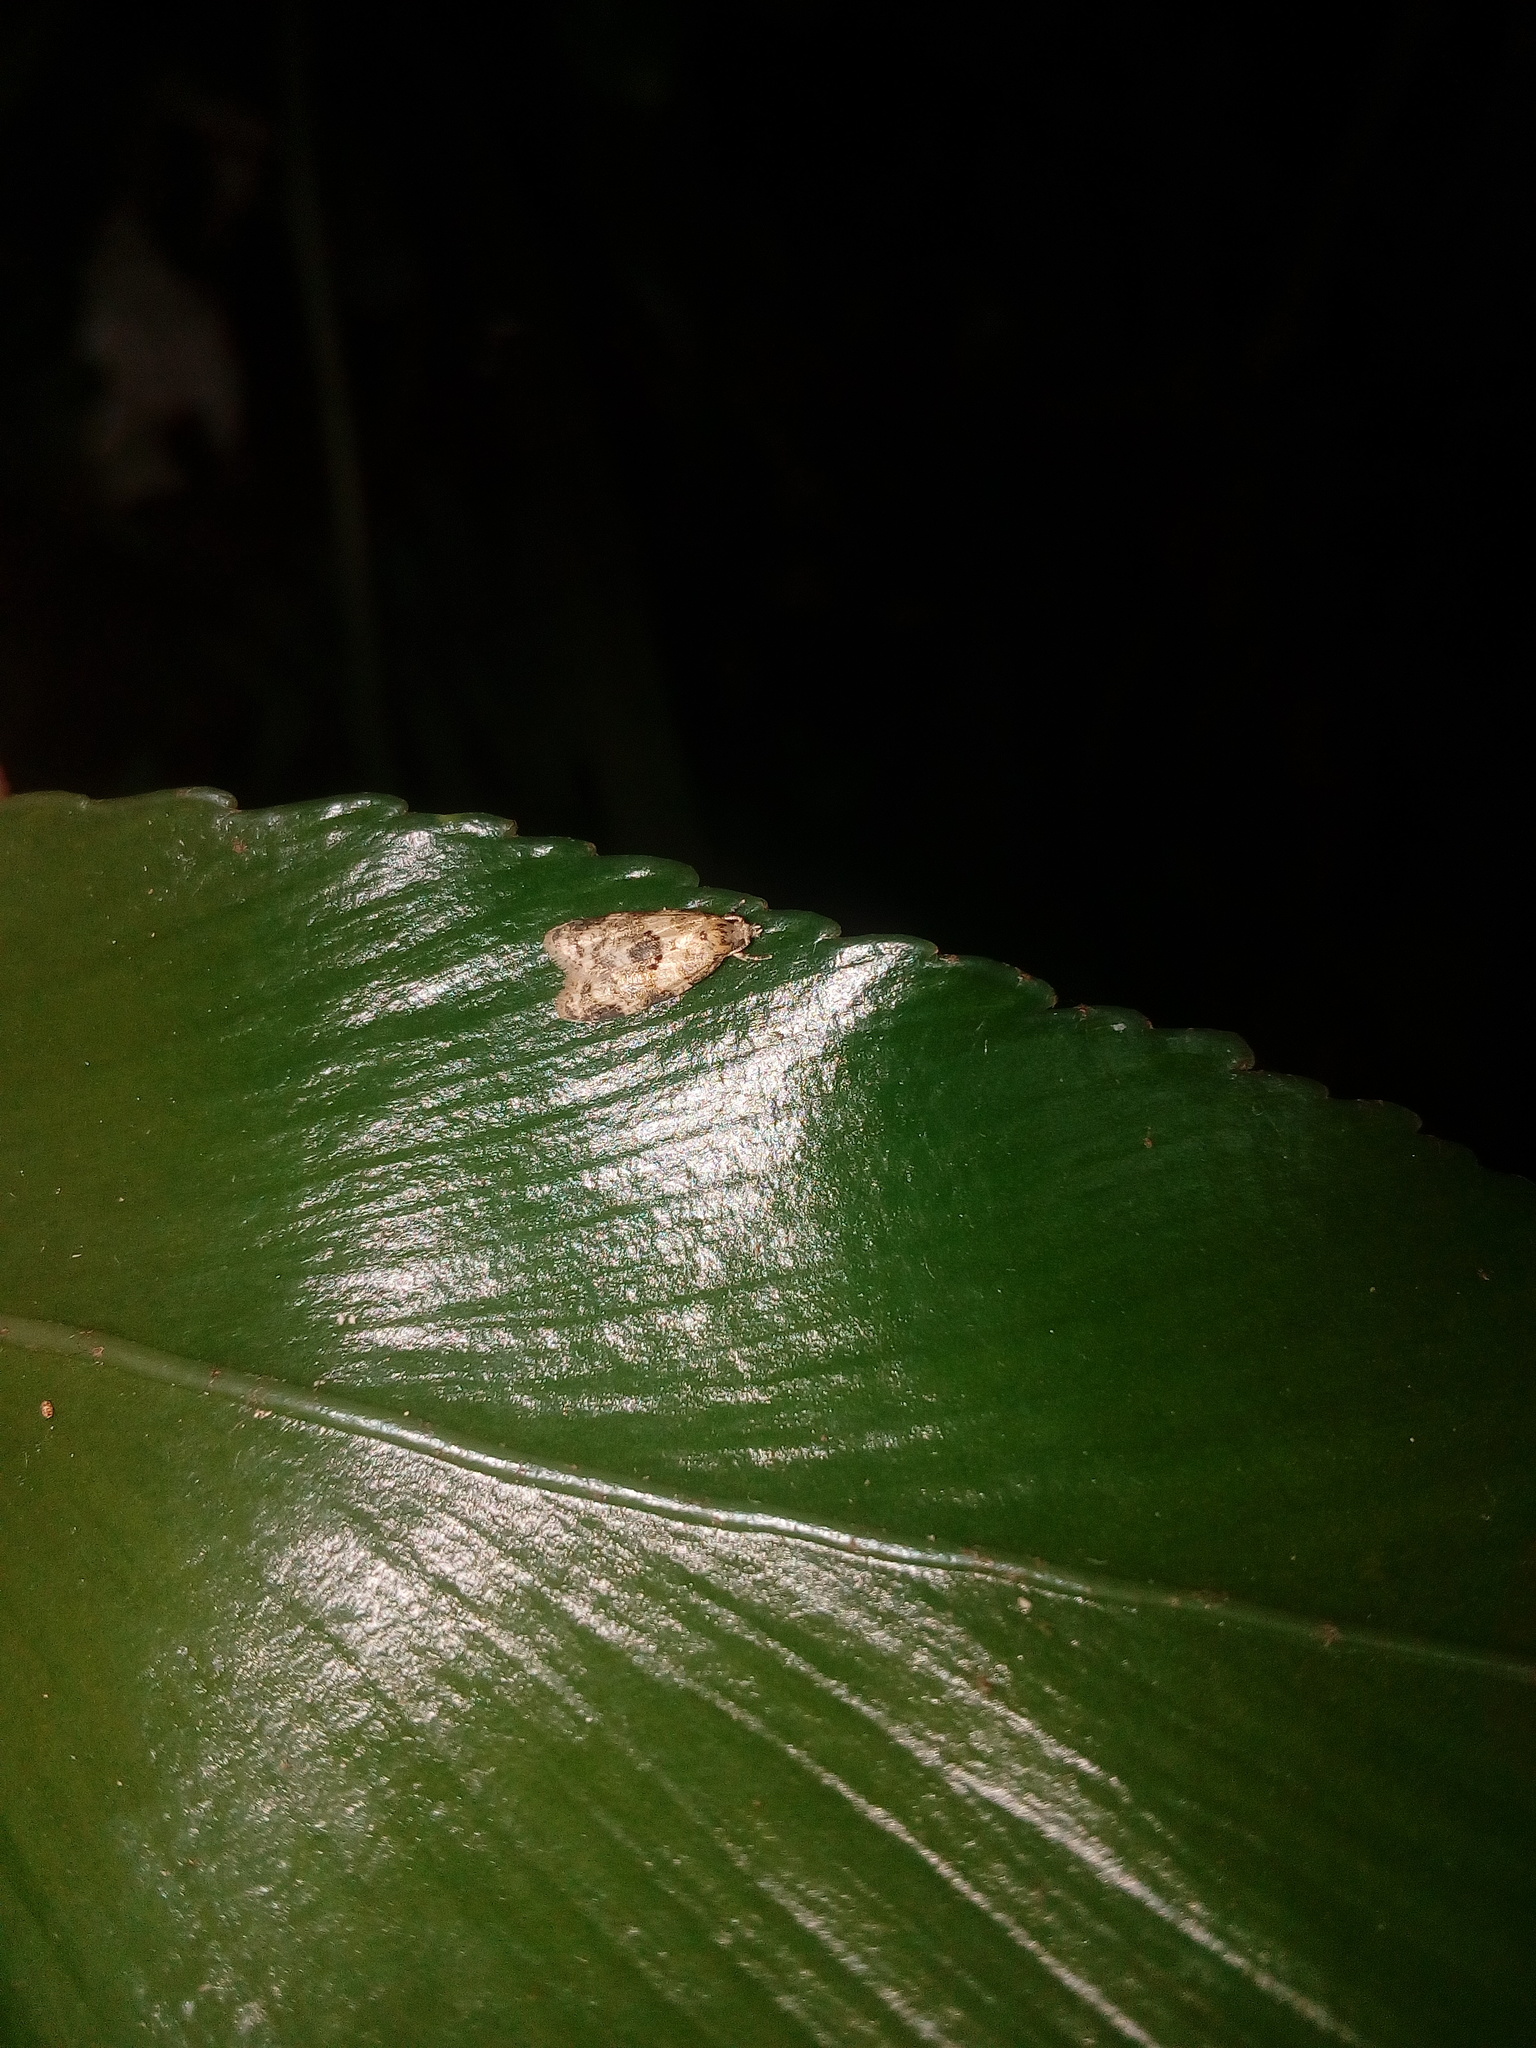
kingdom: Animalia
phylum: Arthropoda
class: Insecta
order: Lepidoptera
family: Tortricidae
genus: Dipterina
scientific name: Dipterina imbriferana
